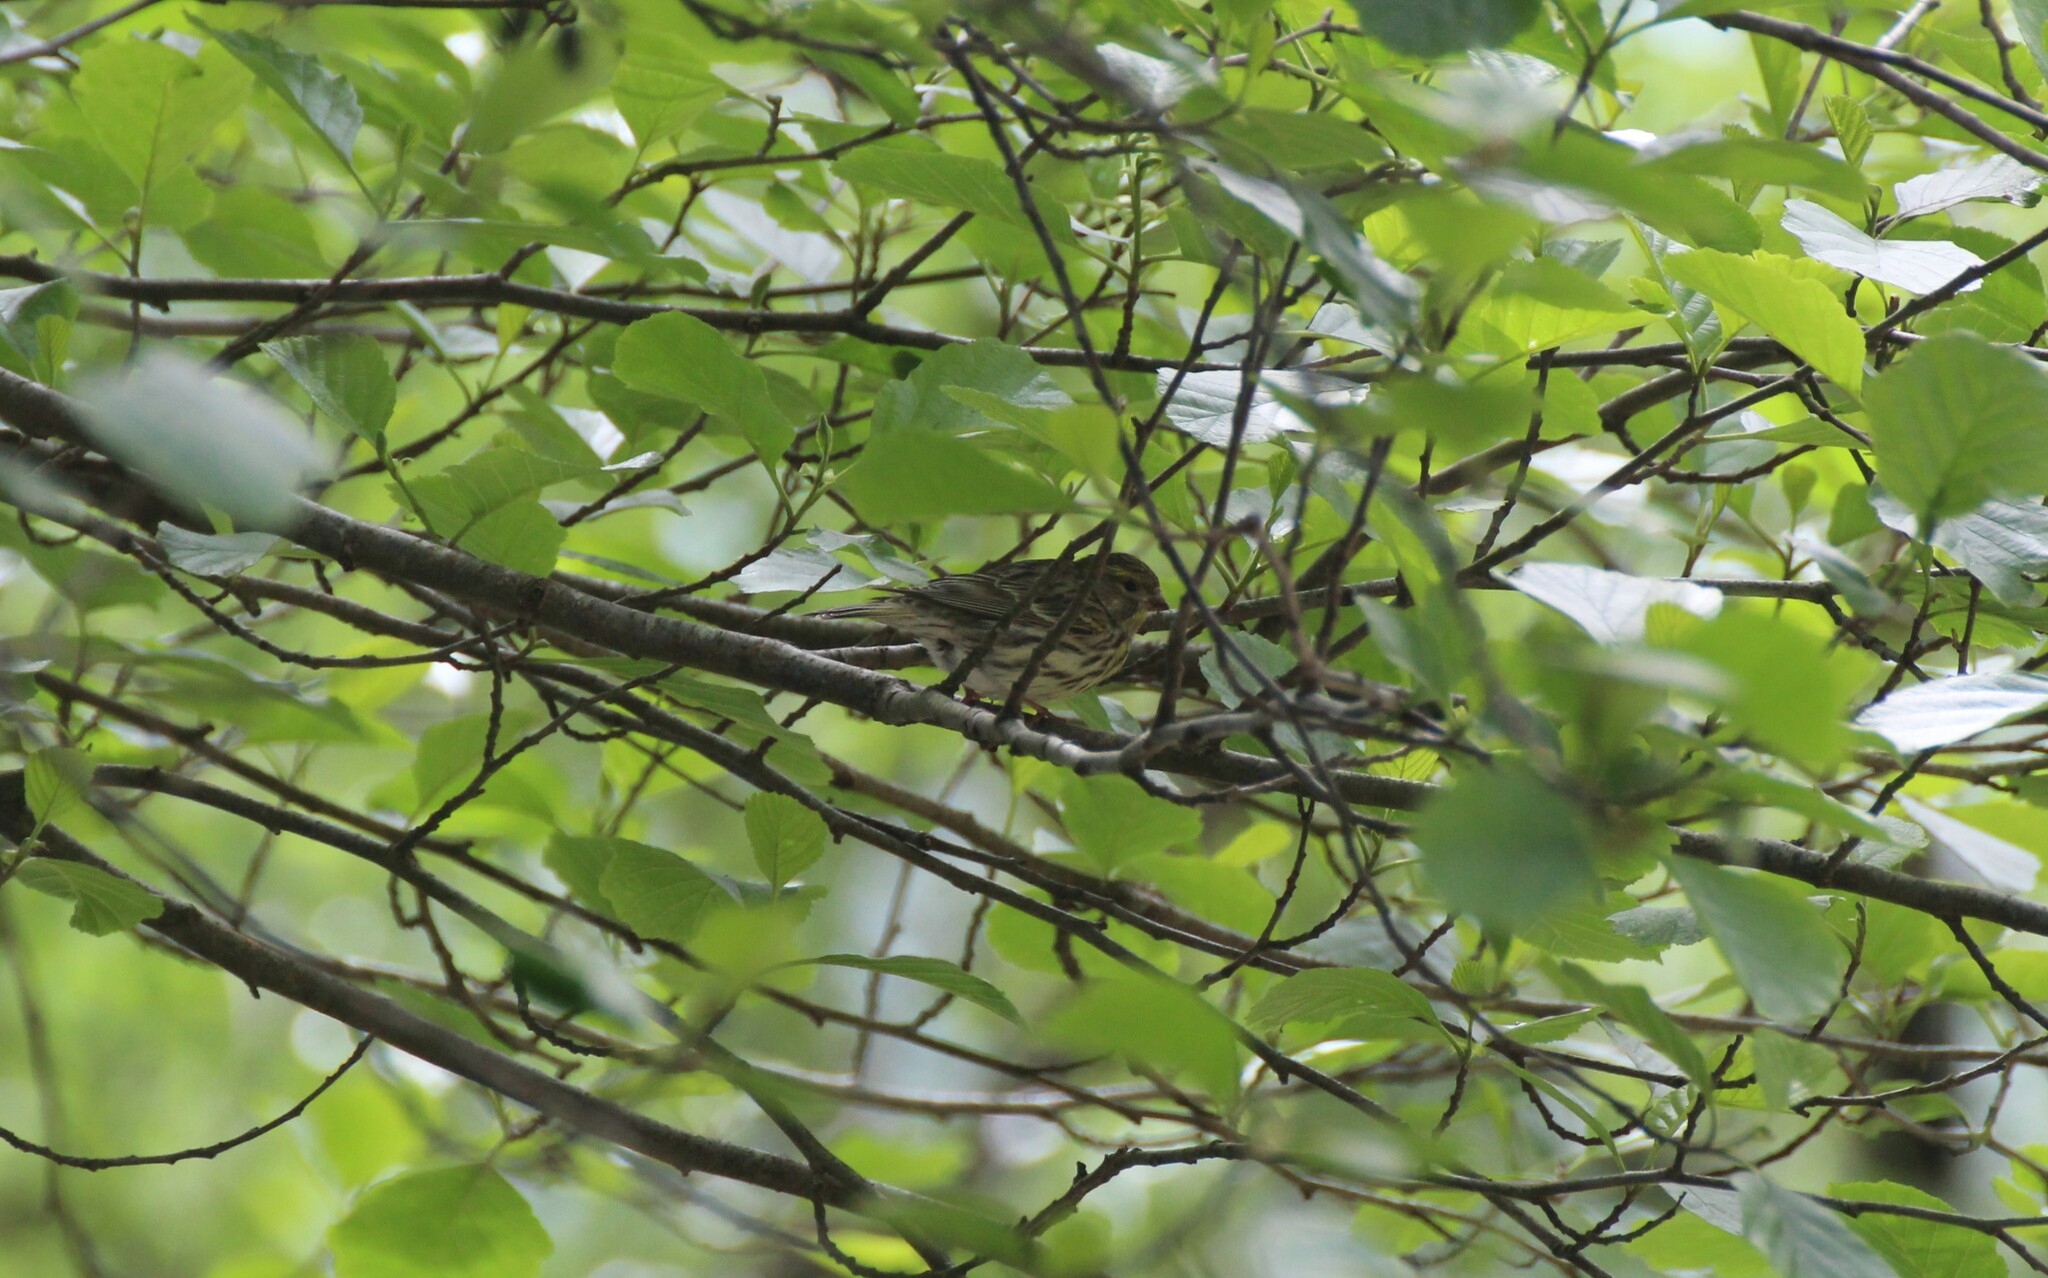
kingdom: Animalia
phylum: Chordata
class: Aves
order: Passeriformes
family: Fringillidae
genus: Serinus
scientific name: Serinus serinus
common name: European serin
